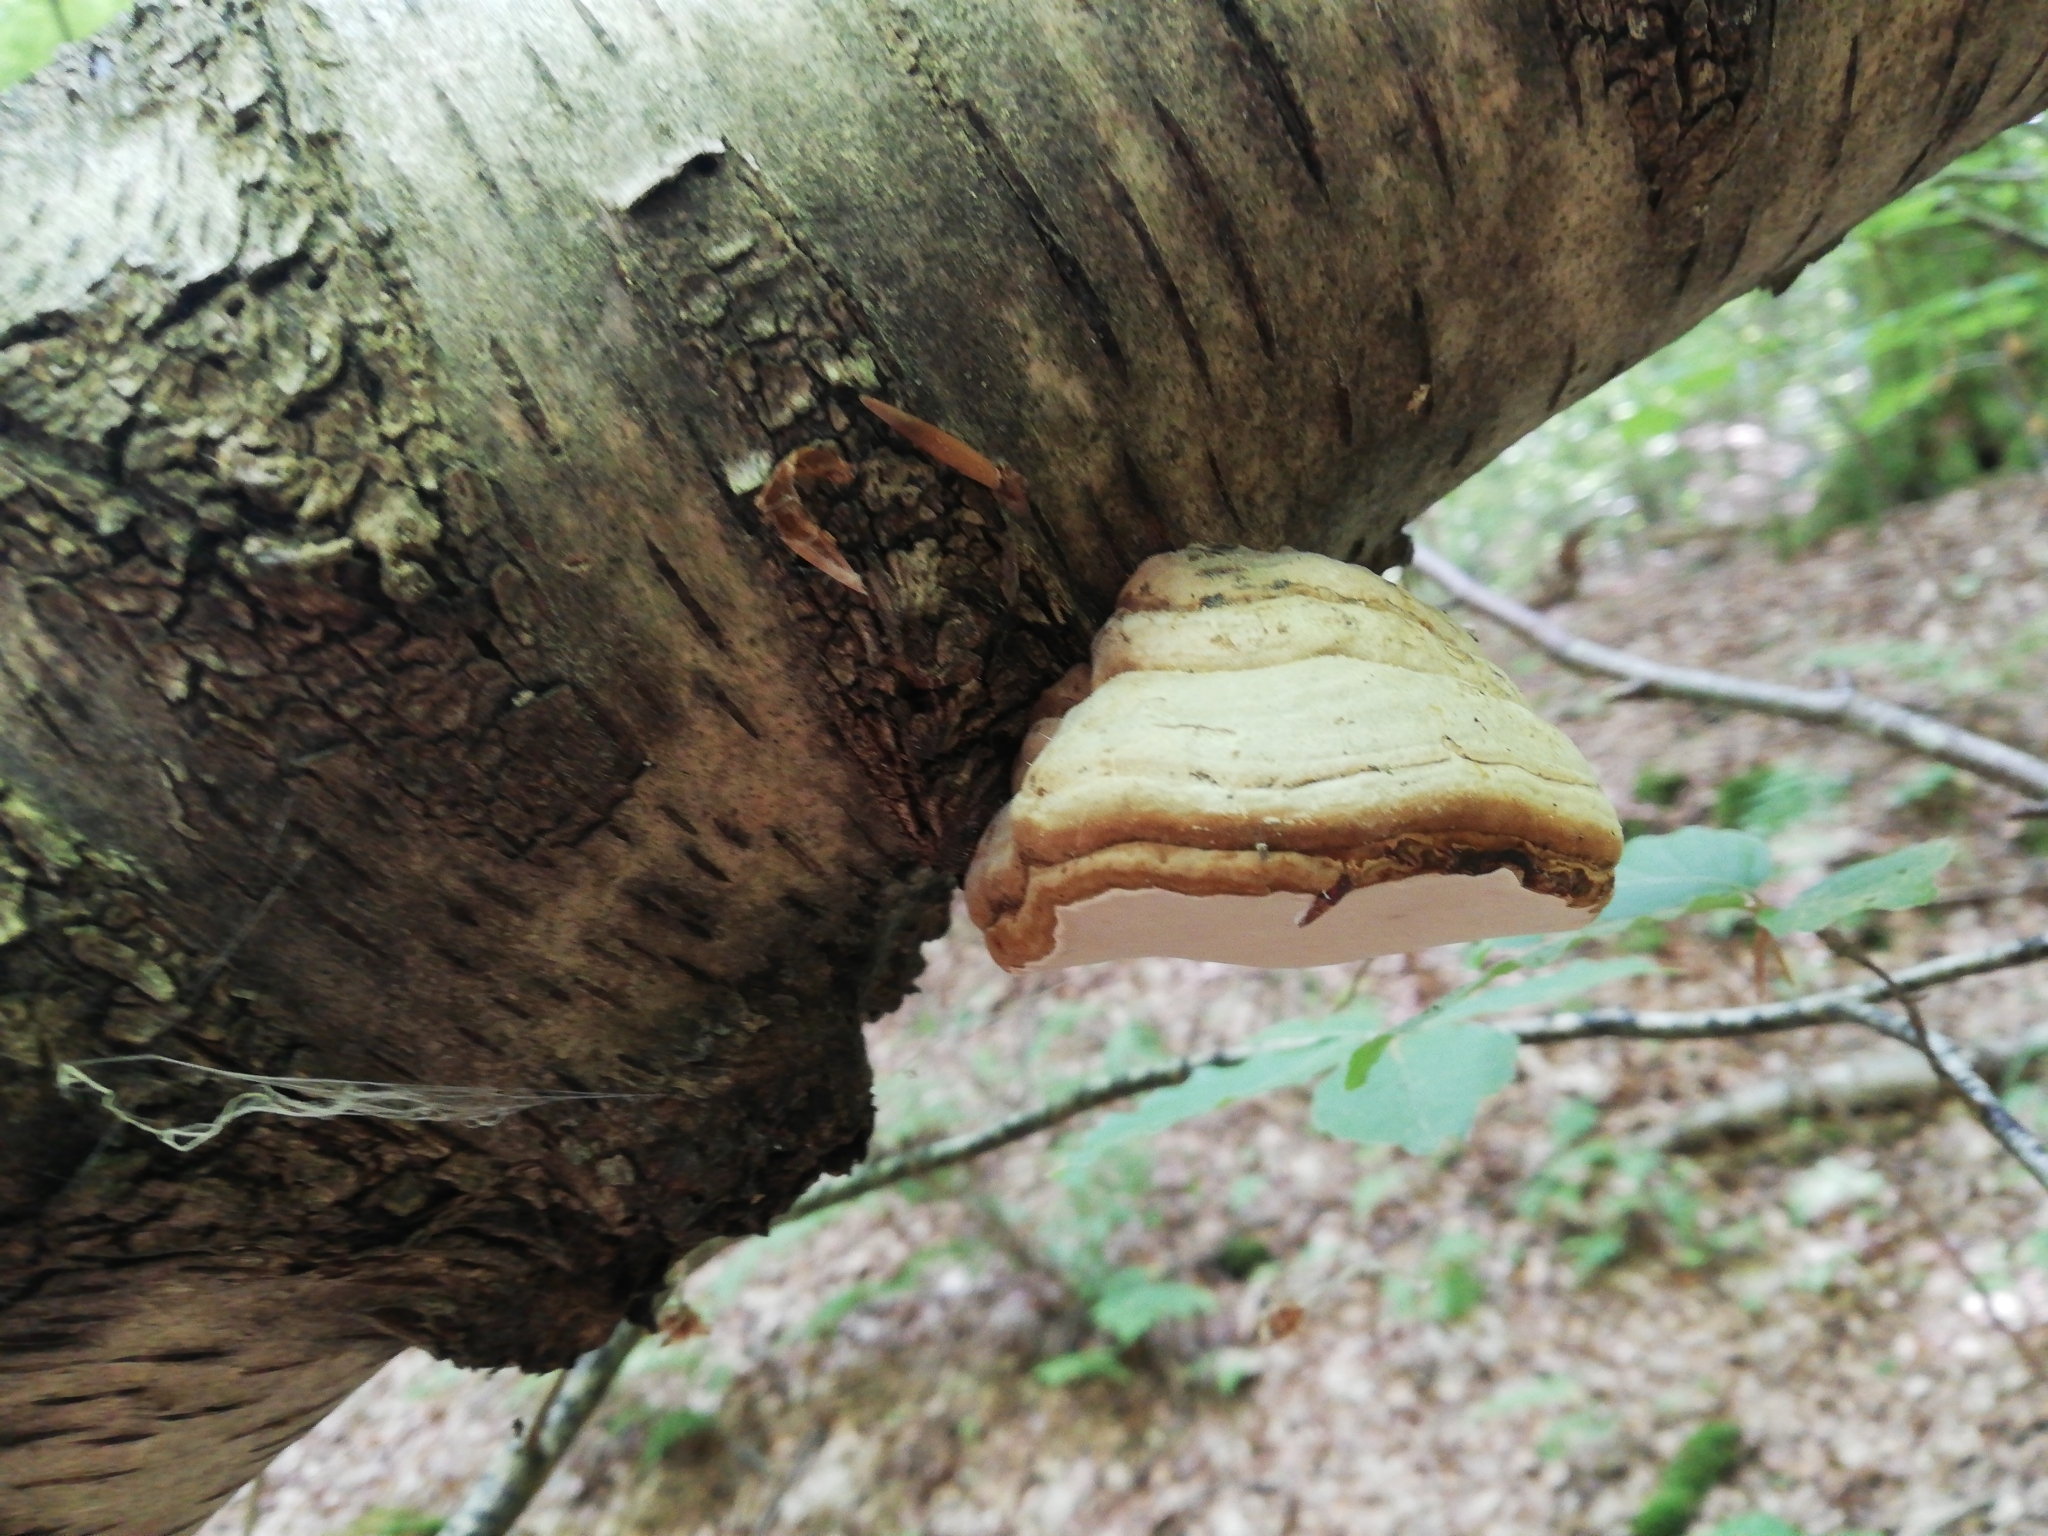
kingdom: Fungi
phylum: Basidiomycota
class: Agaricomycetes
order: Polyporales
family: Fomitopsidaceae
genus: Fomitopsis
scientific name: Fomitopsis betulina
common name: Birch polypore
